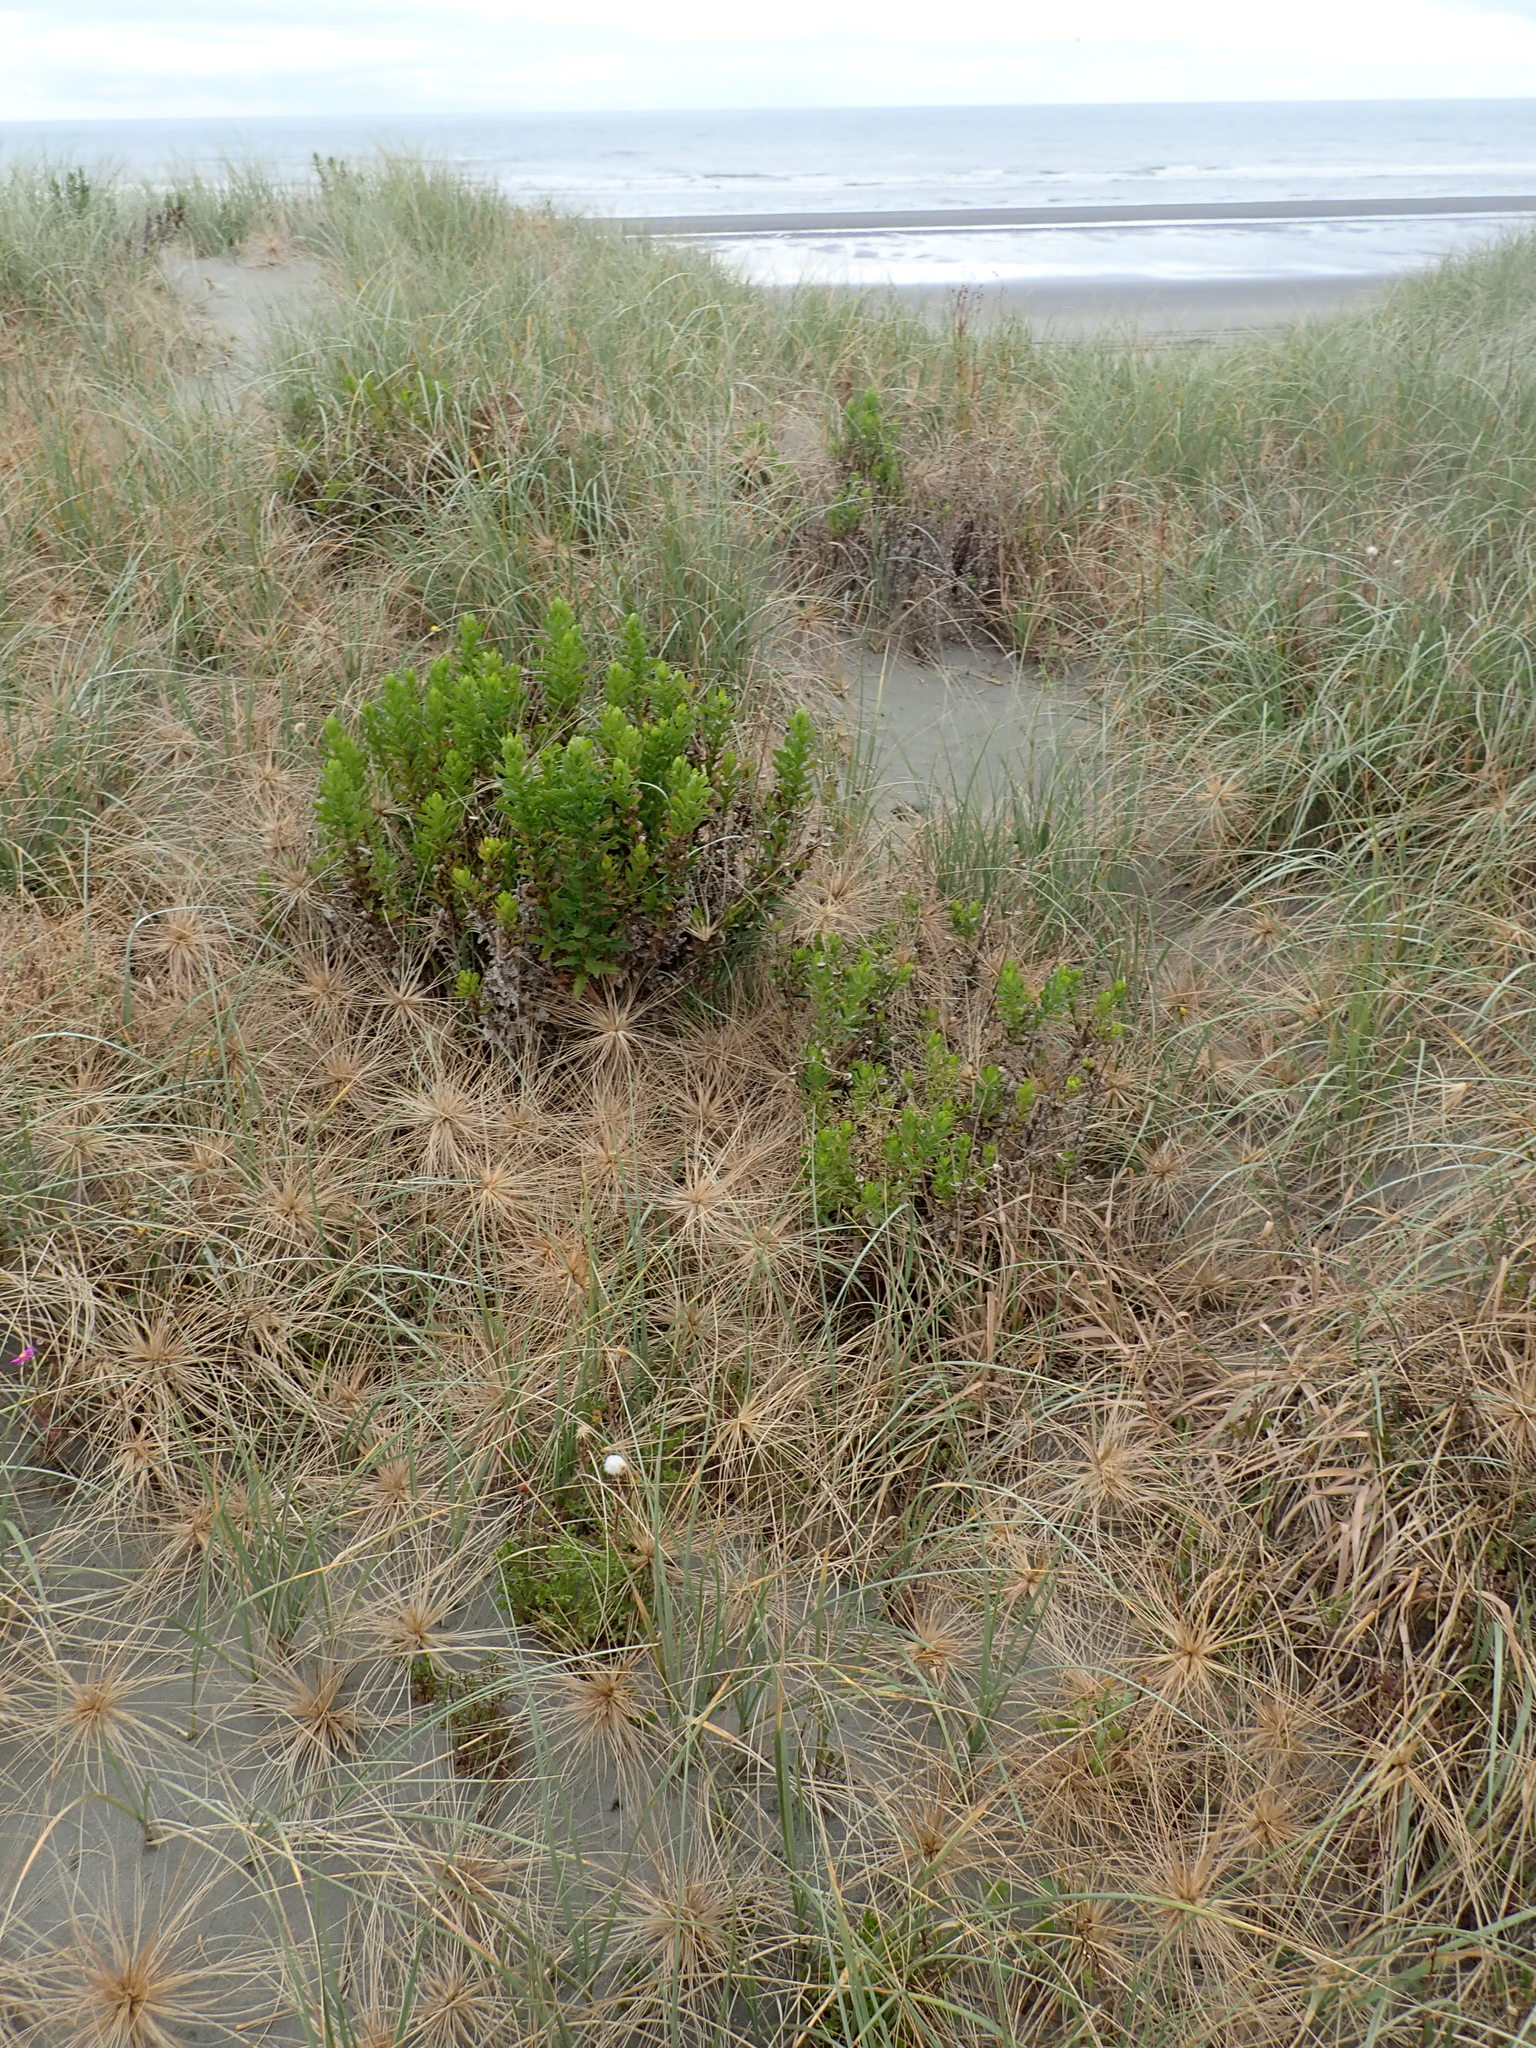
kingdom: Plantae
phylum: Tracheophyta
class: Magnoliopsida
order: Asterales
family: Asteraceae
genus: Senecio
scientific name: Senecio glastifolius
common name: Woad-leaved ragwort
